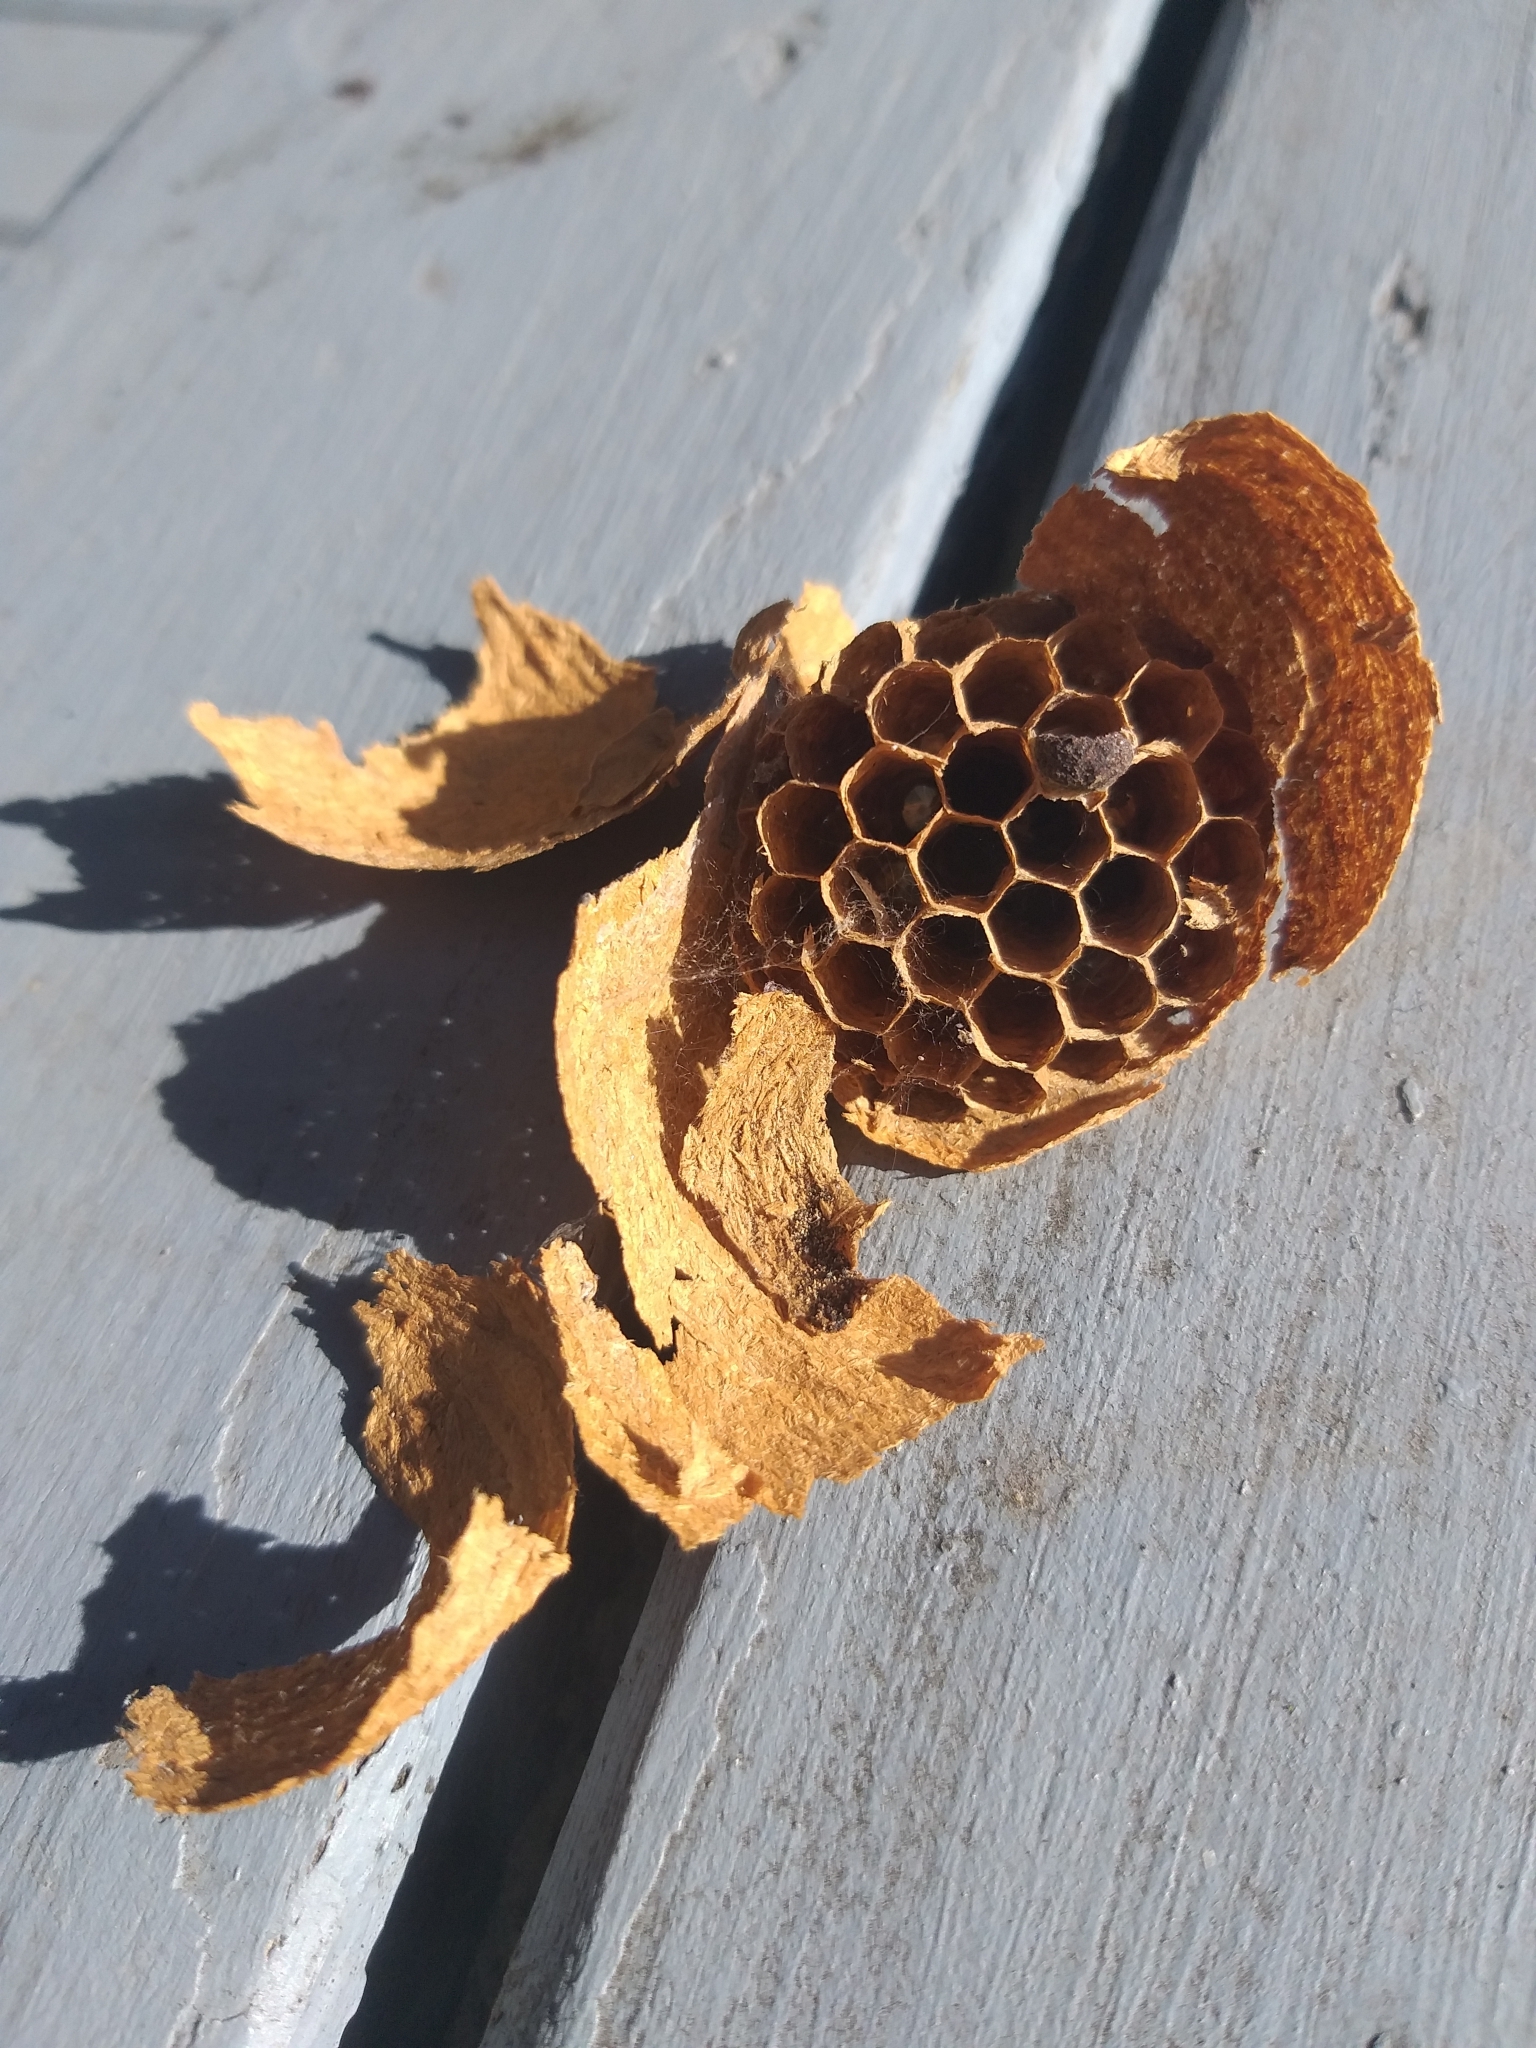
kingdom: Animalia
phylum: Arthropoda
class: Insecta
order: Hymenoptera
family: Vespidae
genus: Vespula
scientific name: Vespula vulgaris
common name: Common wasp
